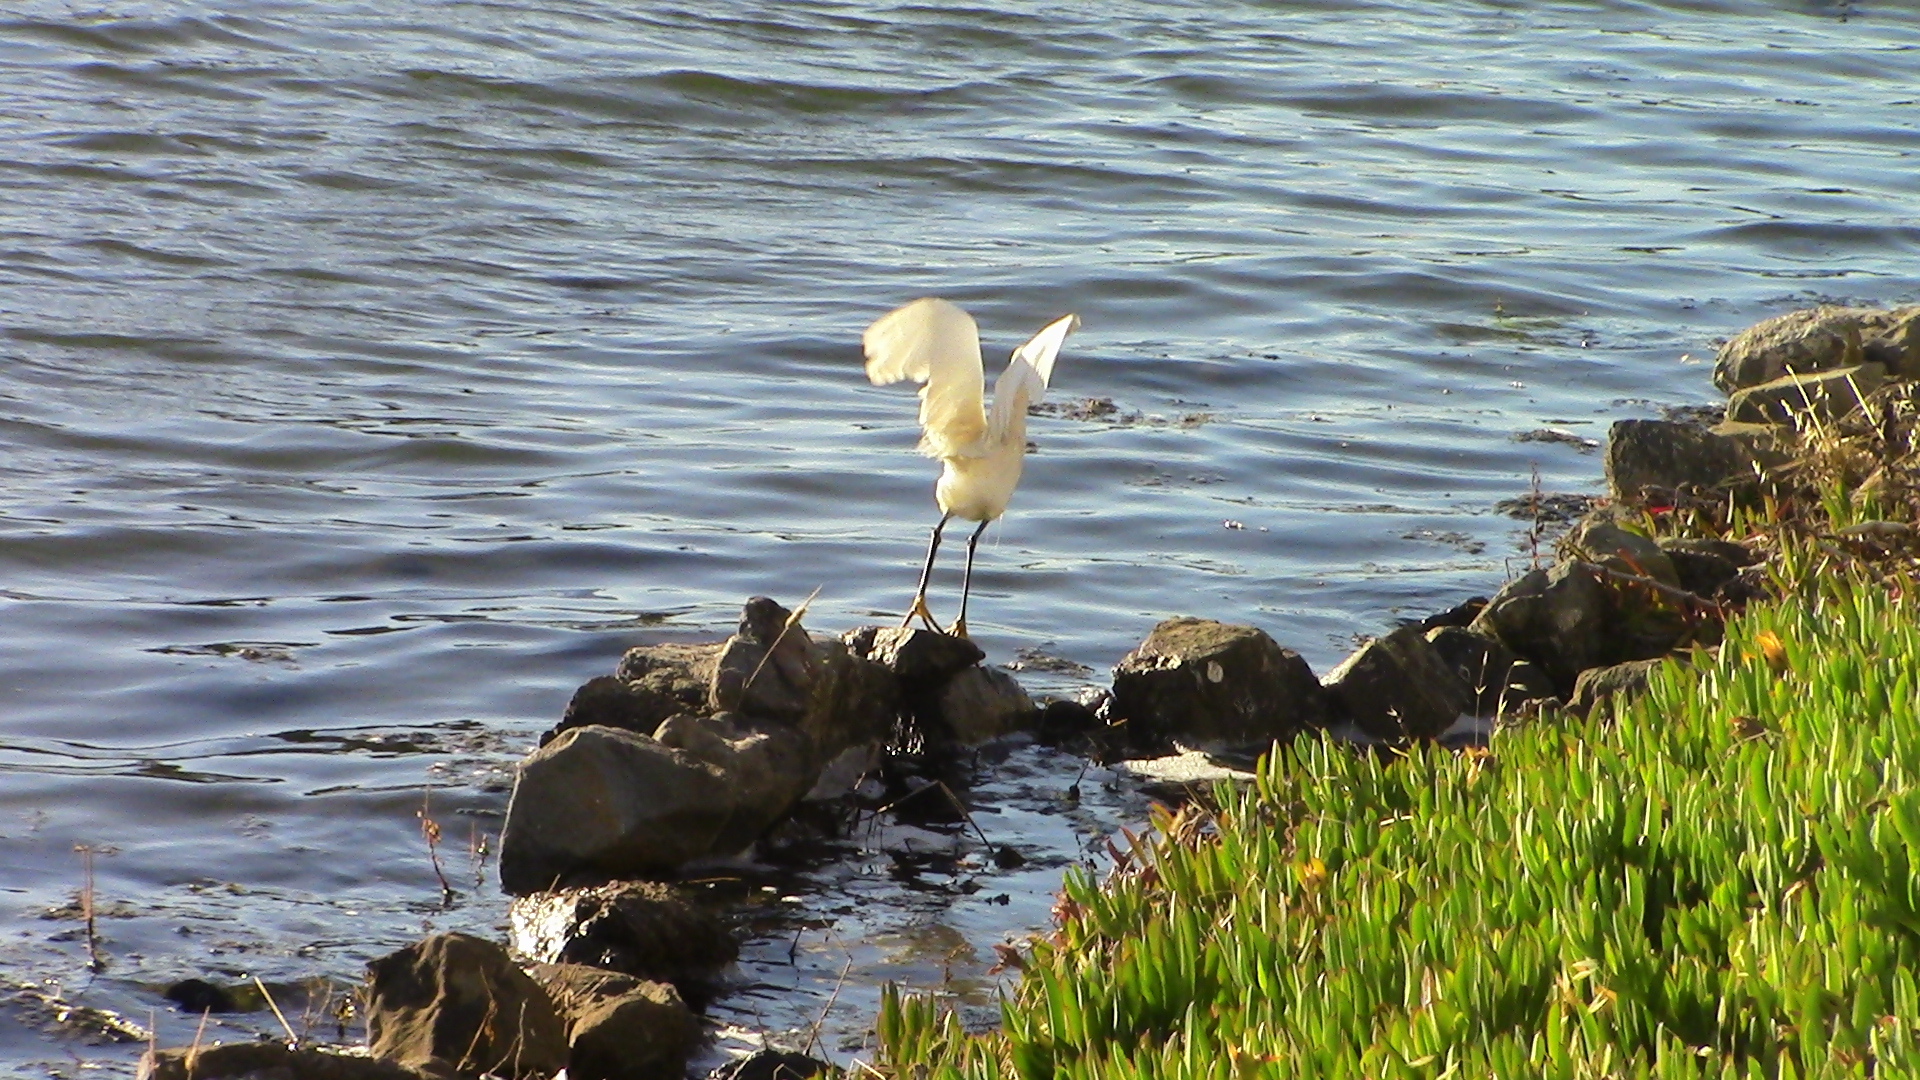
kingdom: Animalia
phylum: Chordata
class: Aves
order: Pelecaniformes
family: Ardeidae
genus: Egretta
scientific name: Egretta thula
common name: Snowy egret
